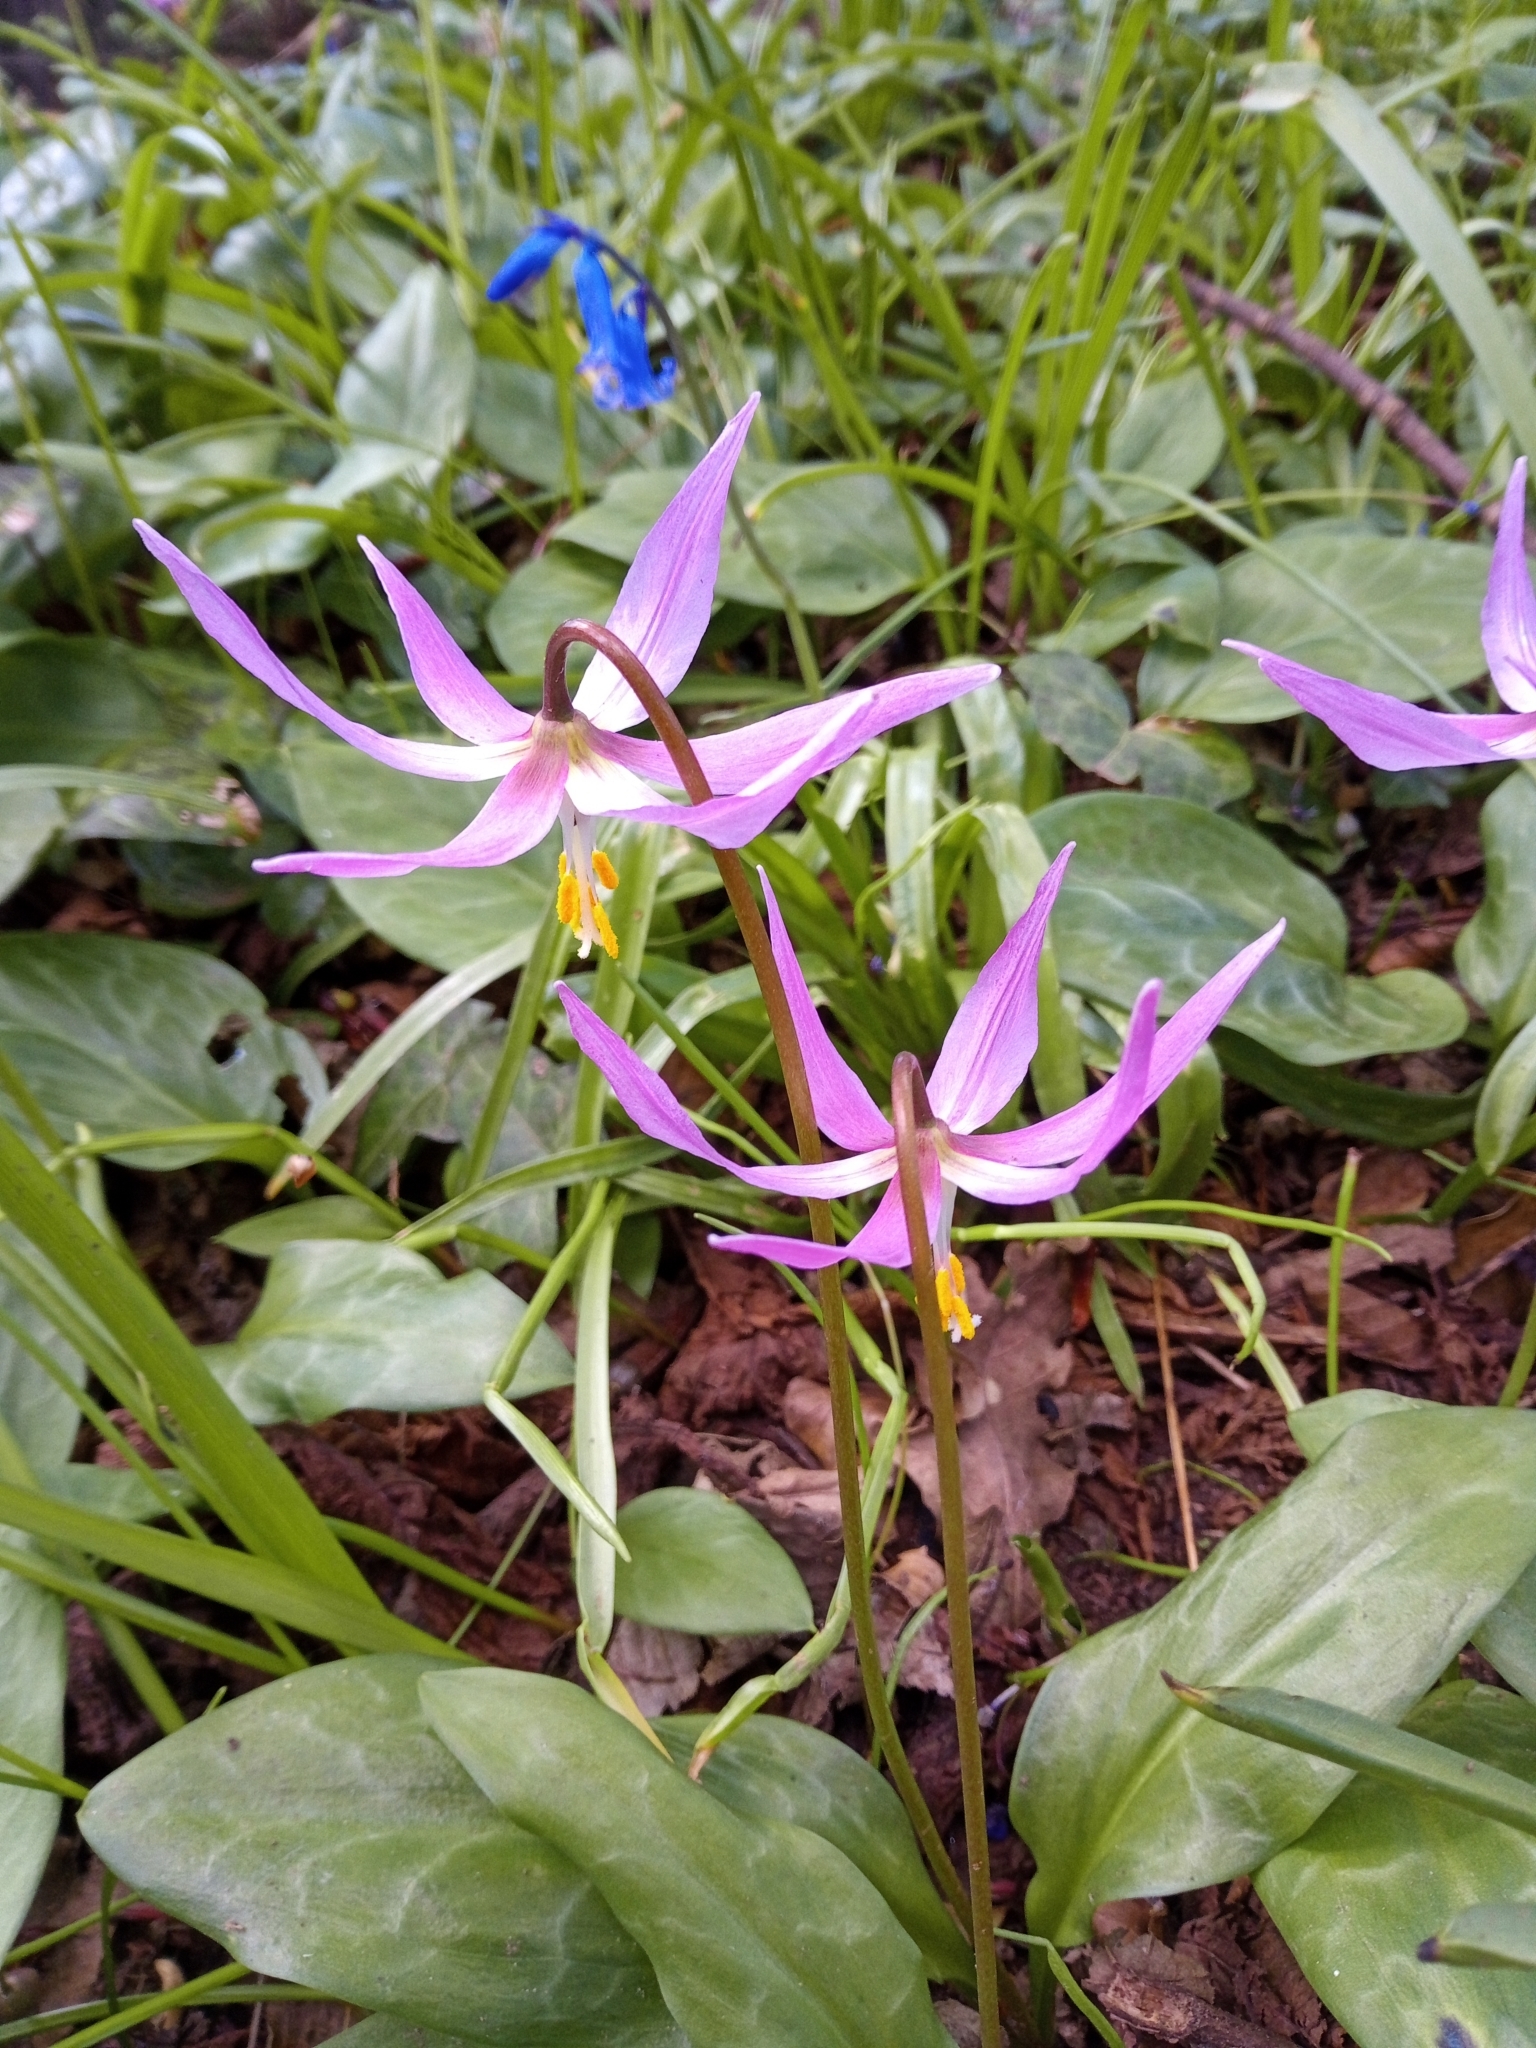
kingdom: Plantae
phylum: Tracheophyta
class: Liliopsida
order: Liliales
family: Liliaceae
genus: Erythronium
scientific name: Erythronium revolutum
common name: Pink fawn-lily
